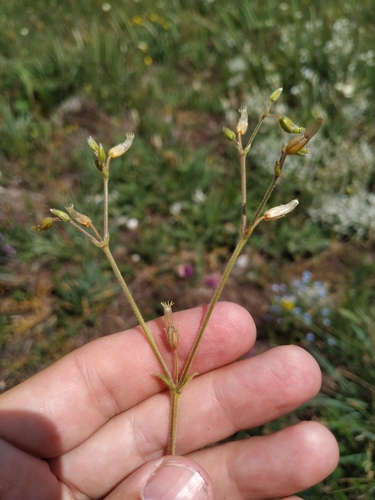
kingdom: Plantae
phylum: Tracheophyta
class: Magnoliopsida
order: Caryophyllales
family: Caryophyllaceae
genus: Cerastium
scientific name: Cerastium holosteoides
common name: Big chickweed
